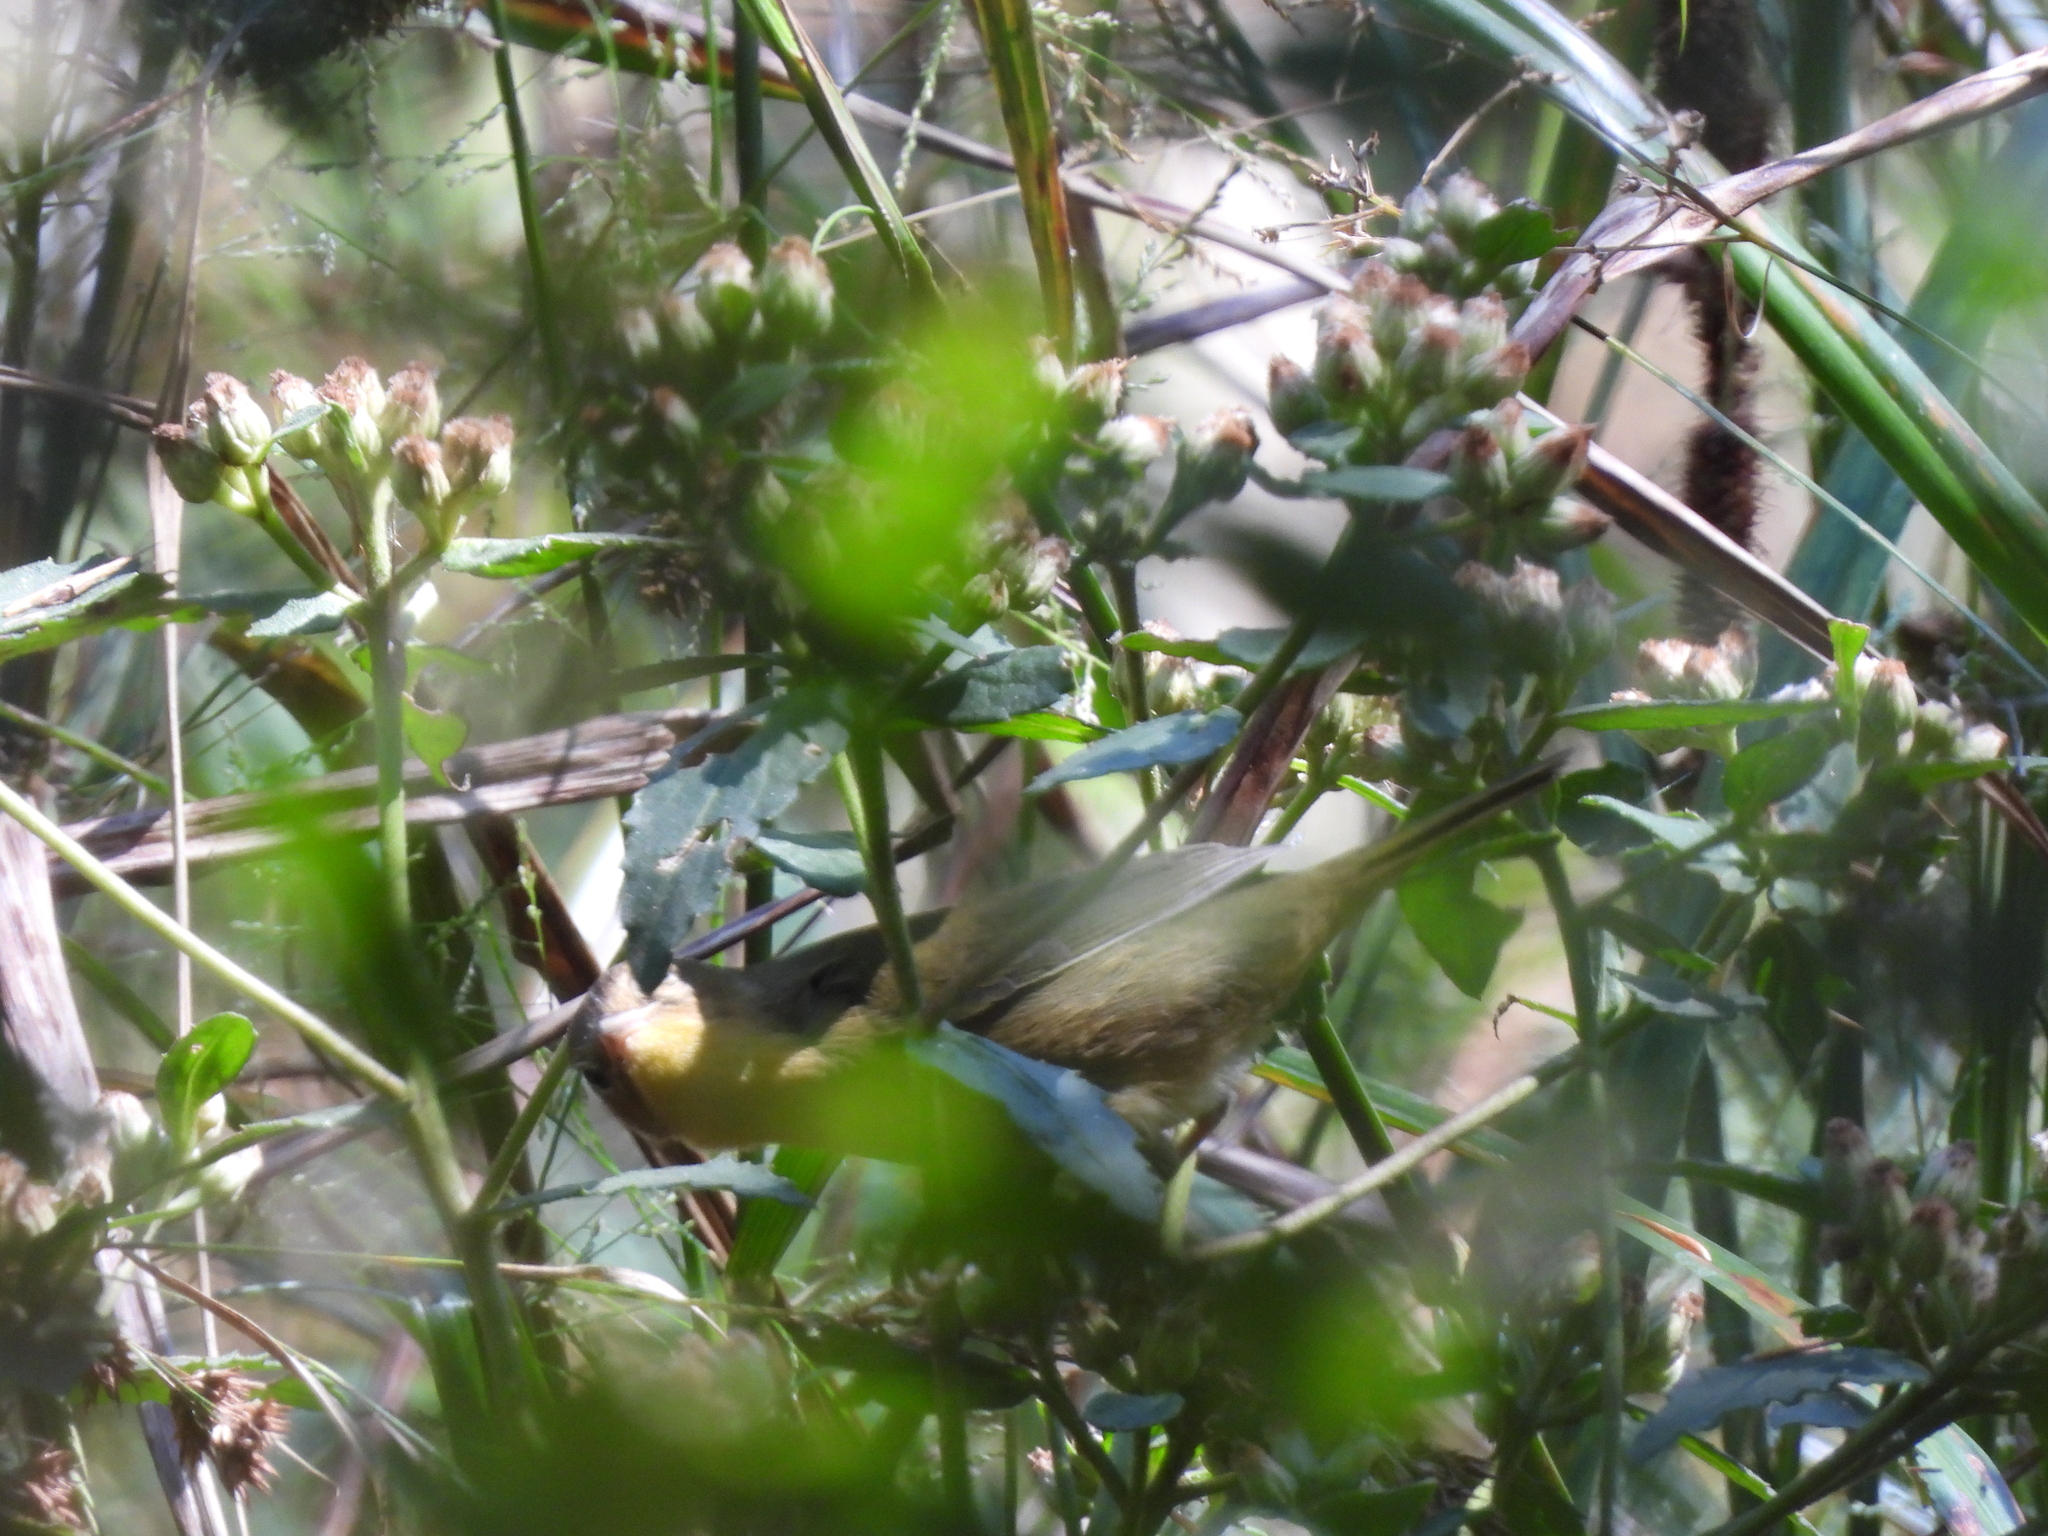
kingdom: Animalia
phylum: Chordata
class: Aves
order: Passeriformes
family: Parulidae
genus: Geothlypis
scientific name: Geothlypis trichas
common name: Common yellowthroat
